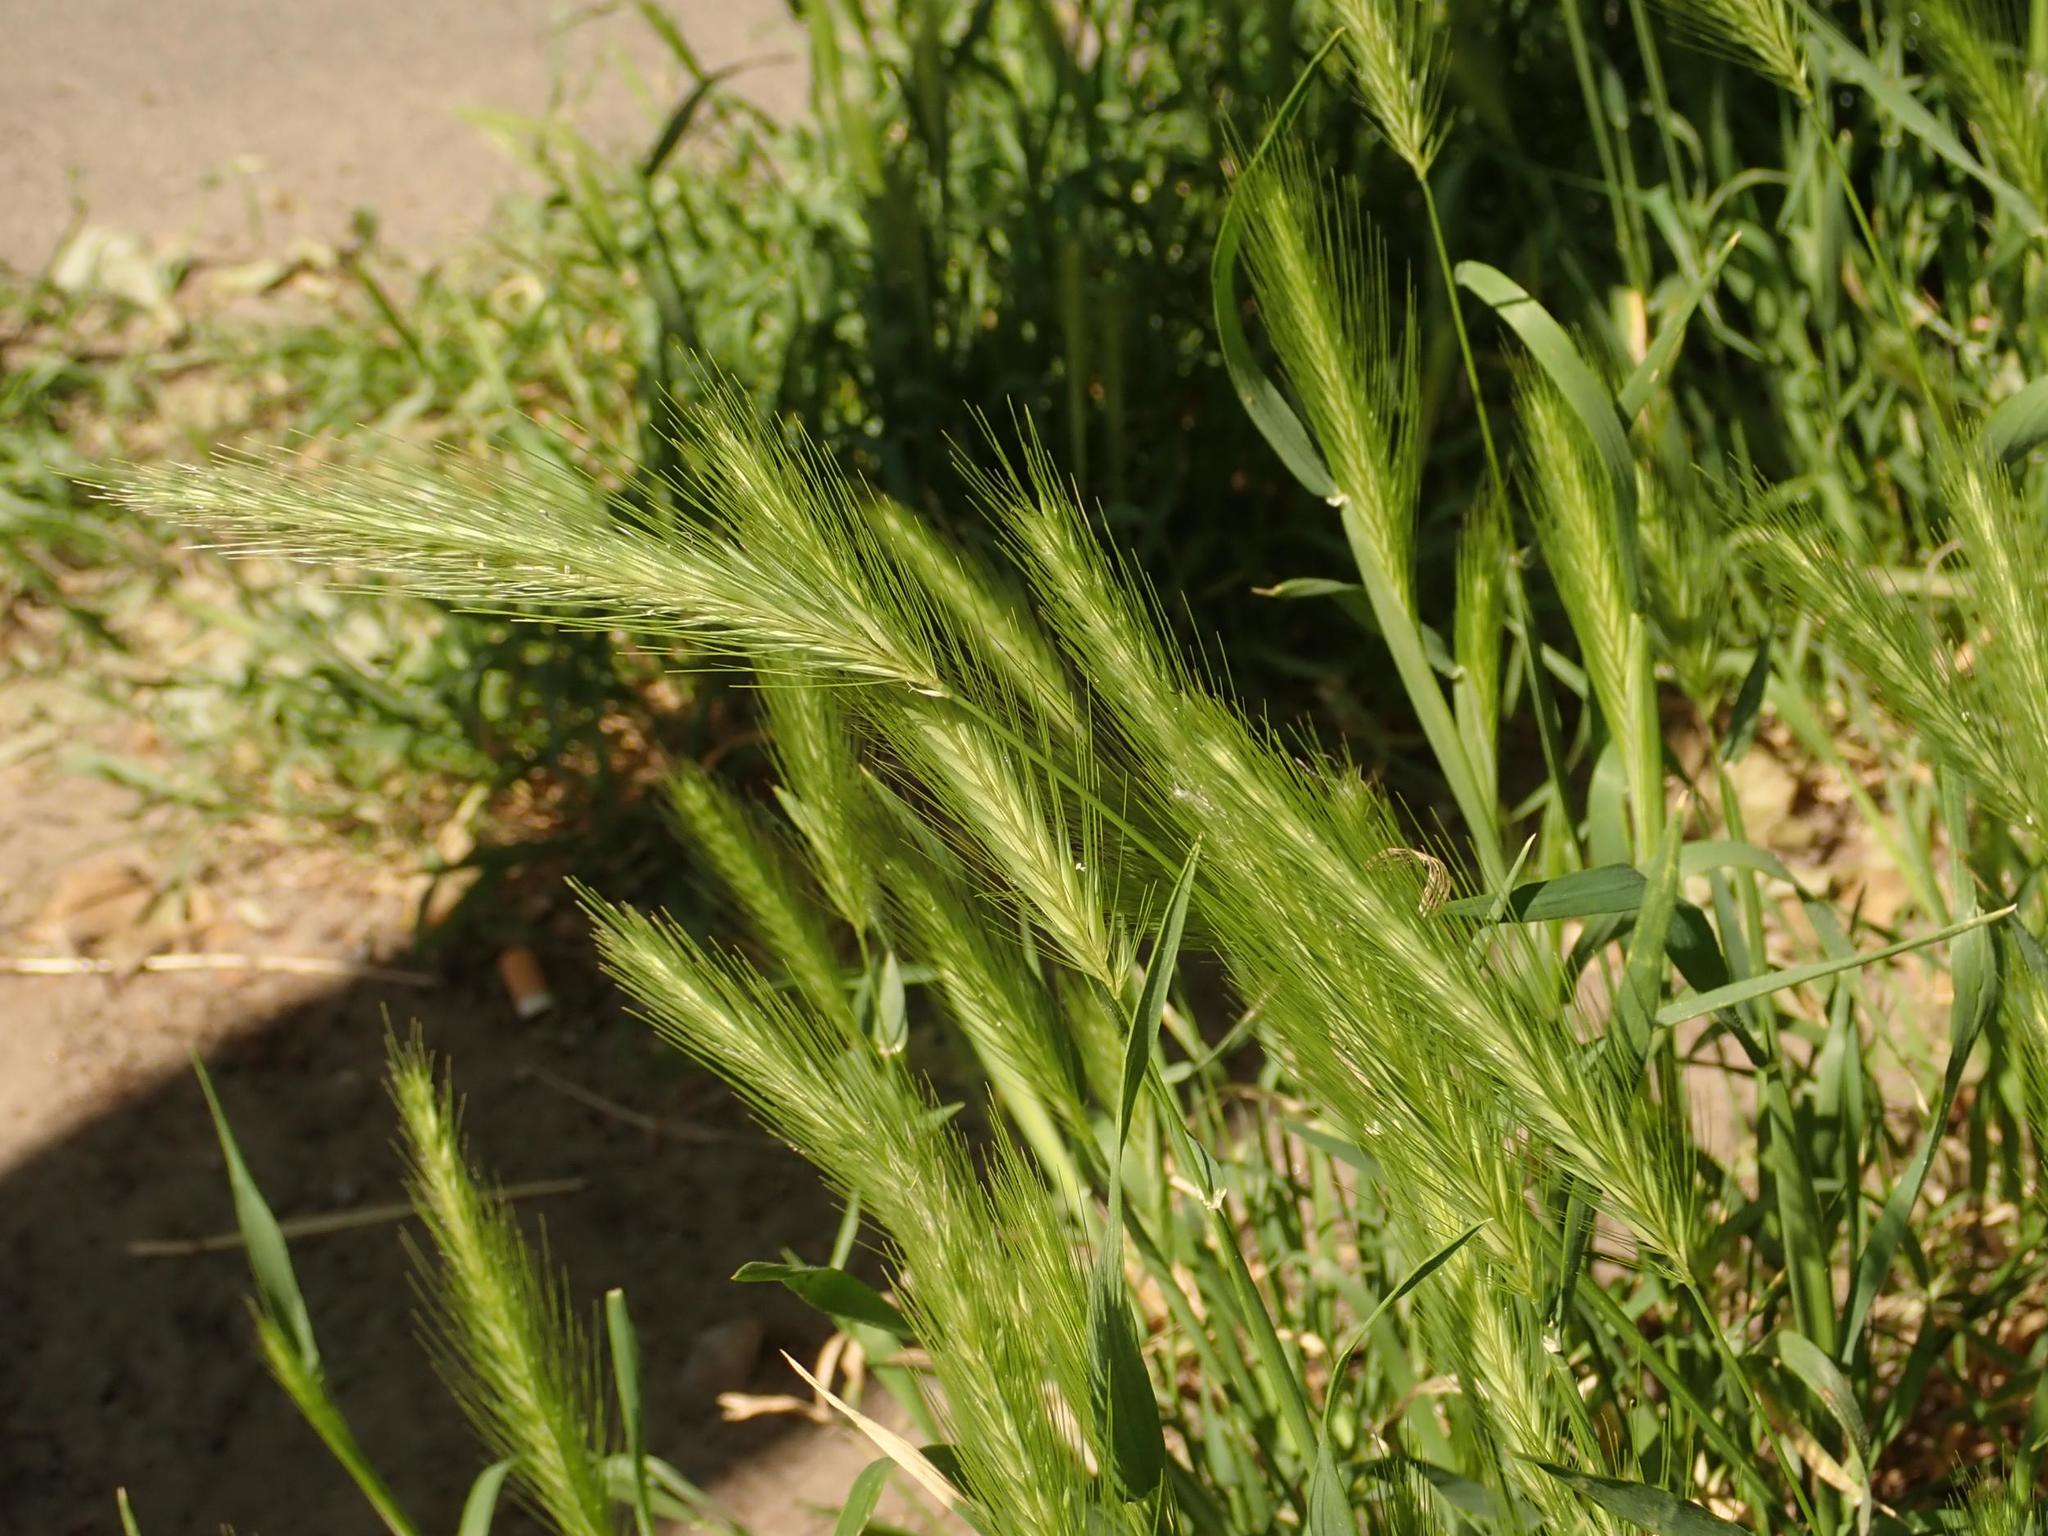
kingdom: Plantae
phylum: Tracheophyta
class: Liliopsida
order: Poales
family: Poaceae
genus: Hordeum
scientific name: Hordeum murinum
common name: Wall barley
